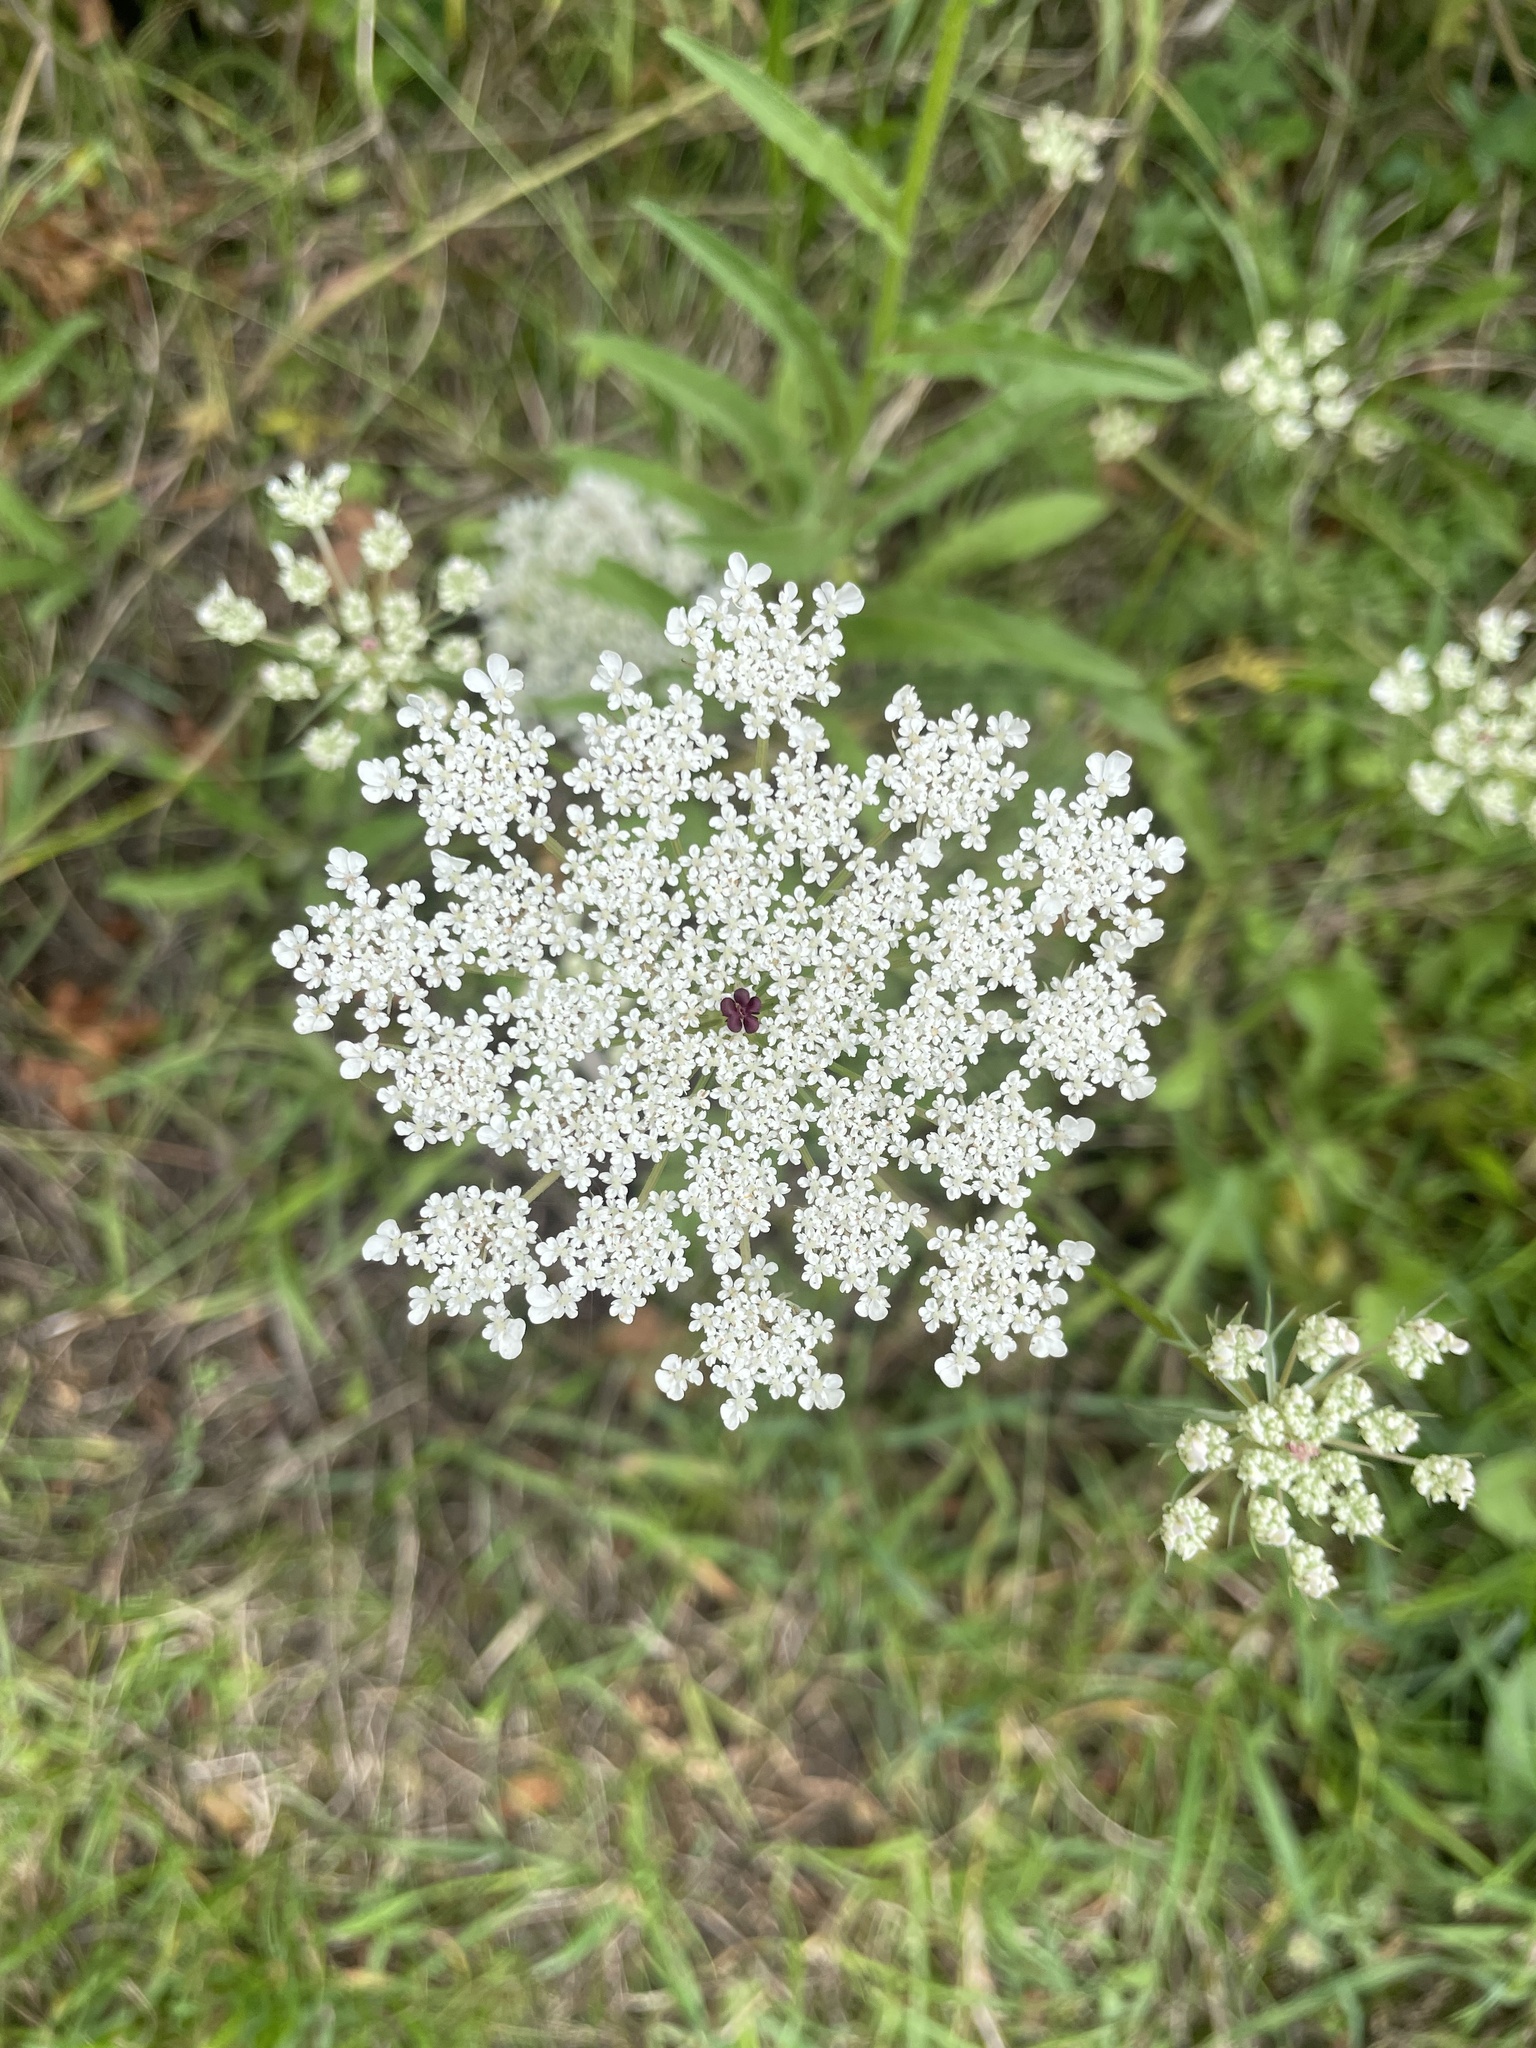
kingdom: Plantae
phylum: Tracheophyta
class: Magnoliopsida
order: Apiales
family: Apiaceae
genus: Daucus
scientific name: Daucus carota
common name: Wild carrot
